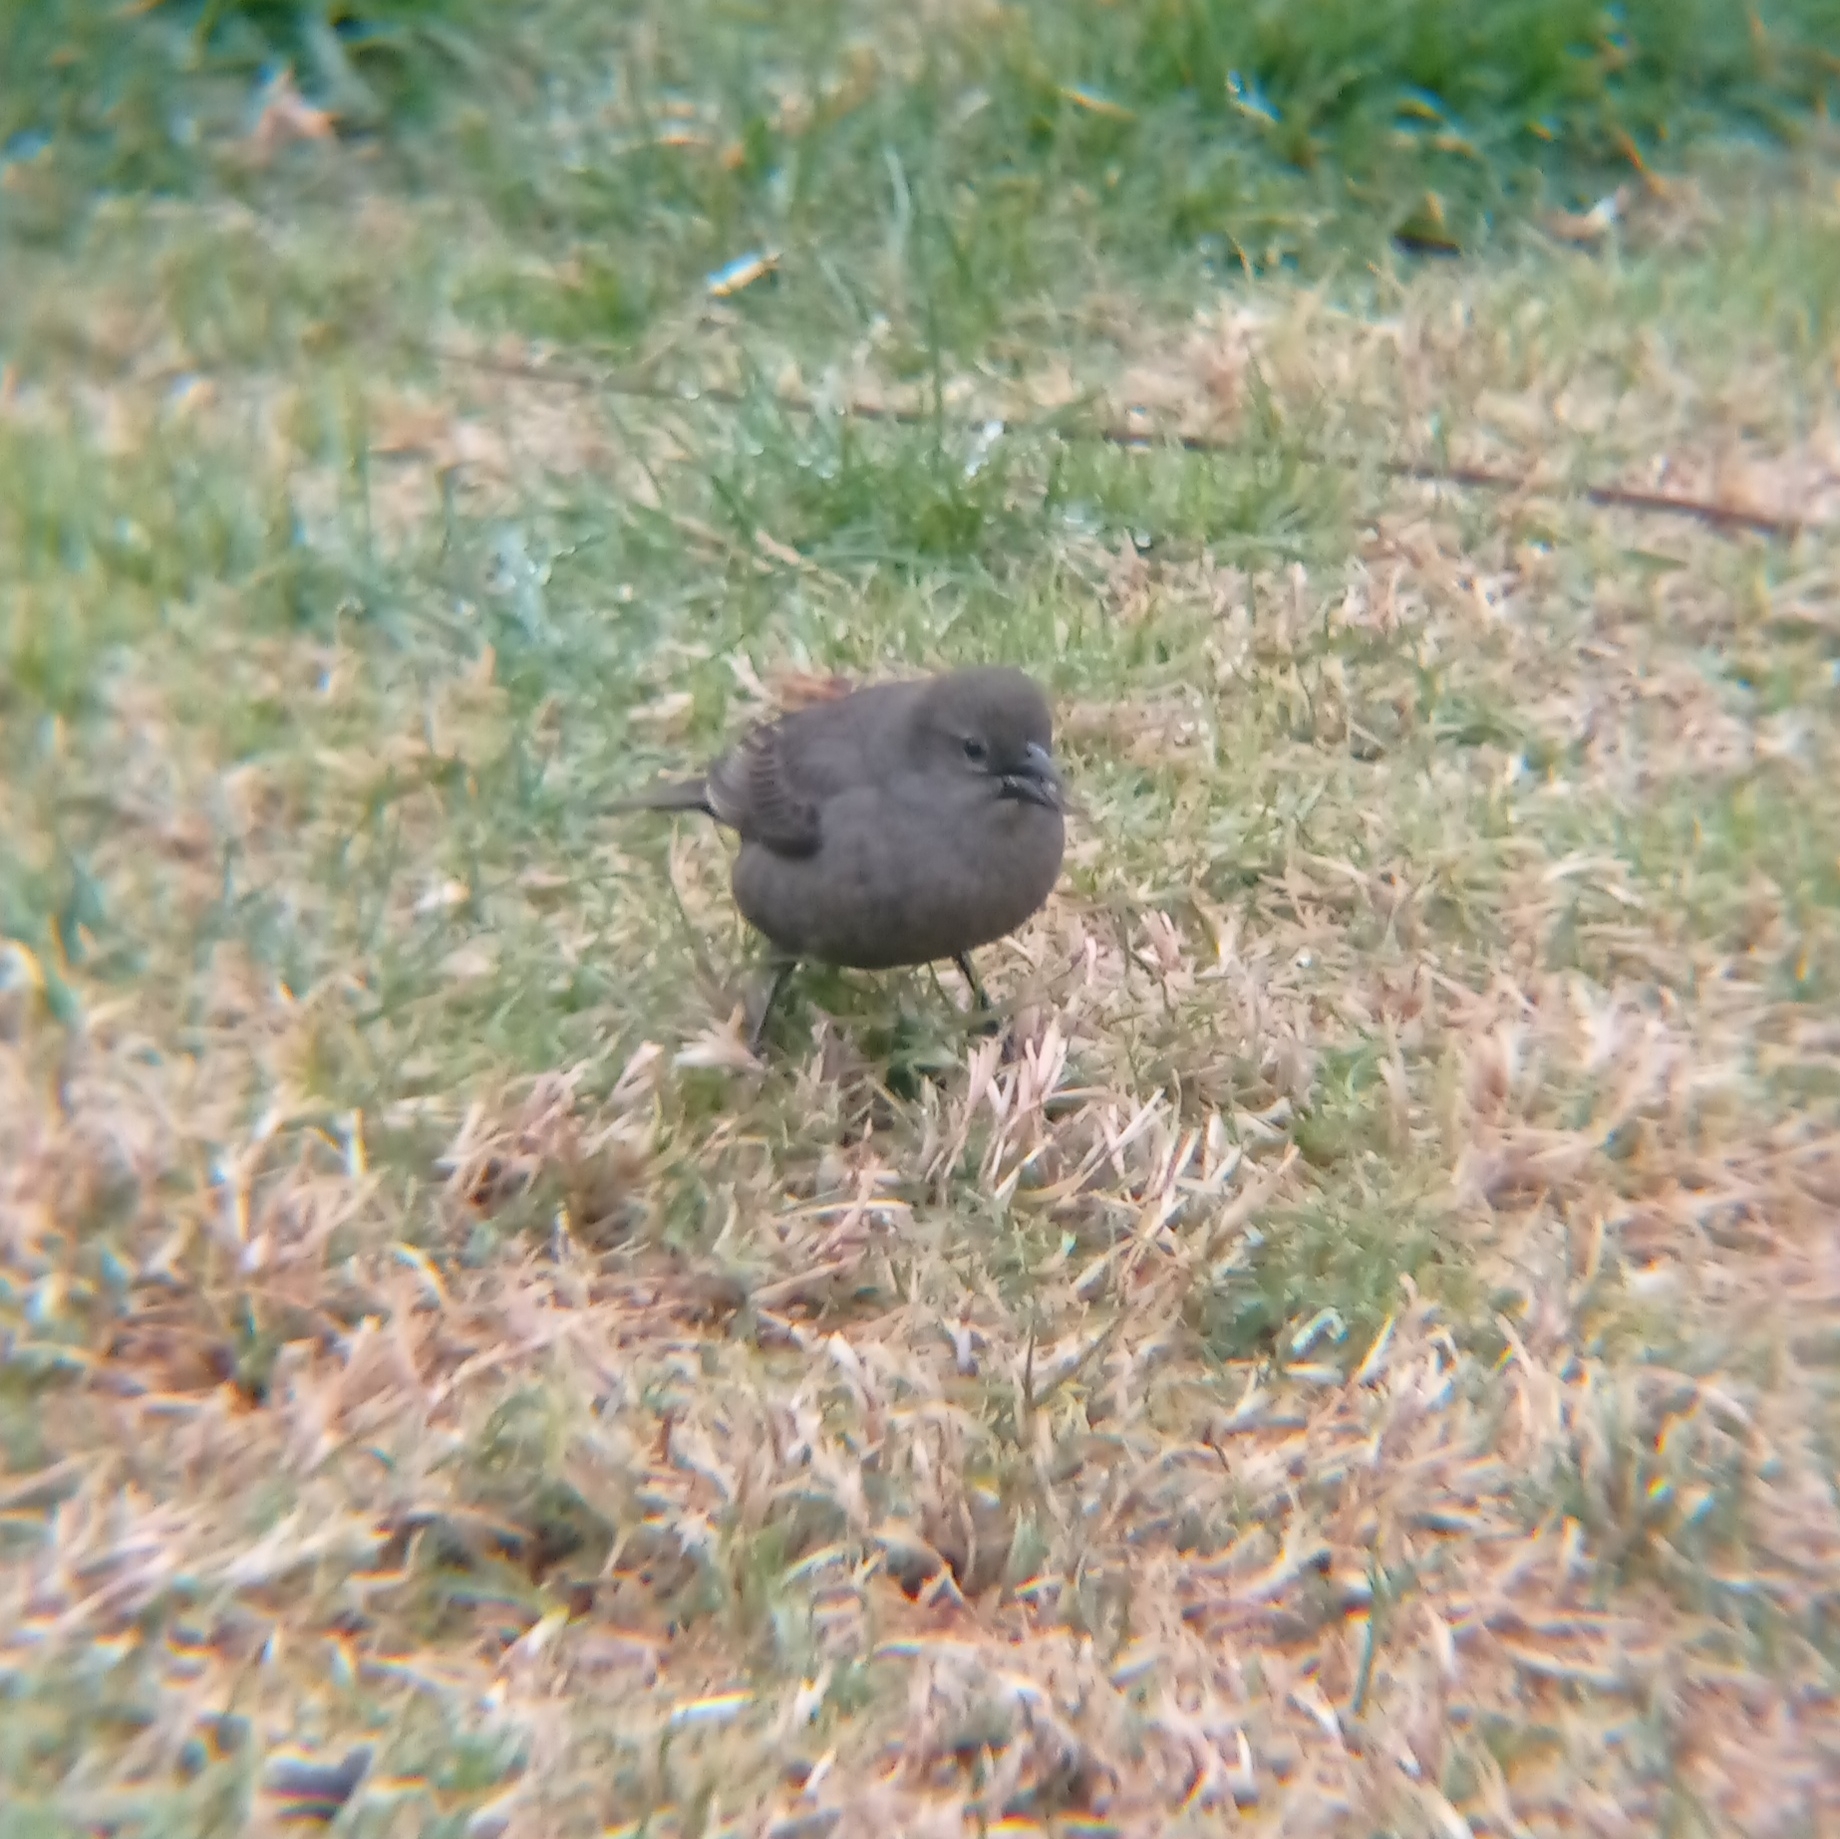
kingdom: Animalia
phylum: Chordata
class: Aves
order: Passeriformes
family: Icteridae
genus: Molothrus
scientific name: Molothrus bonariensis
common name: Shiny cowbird
